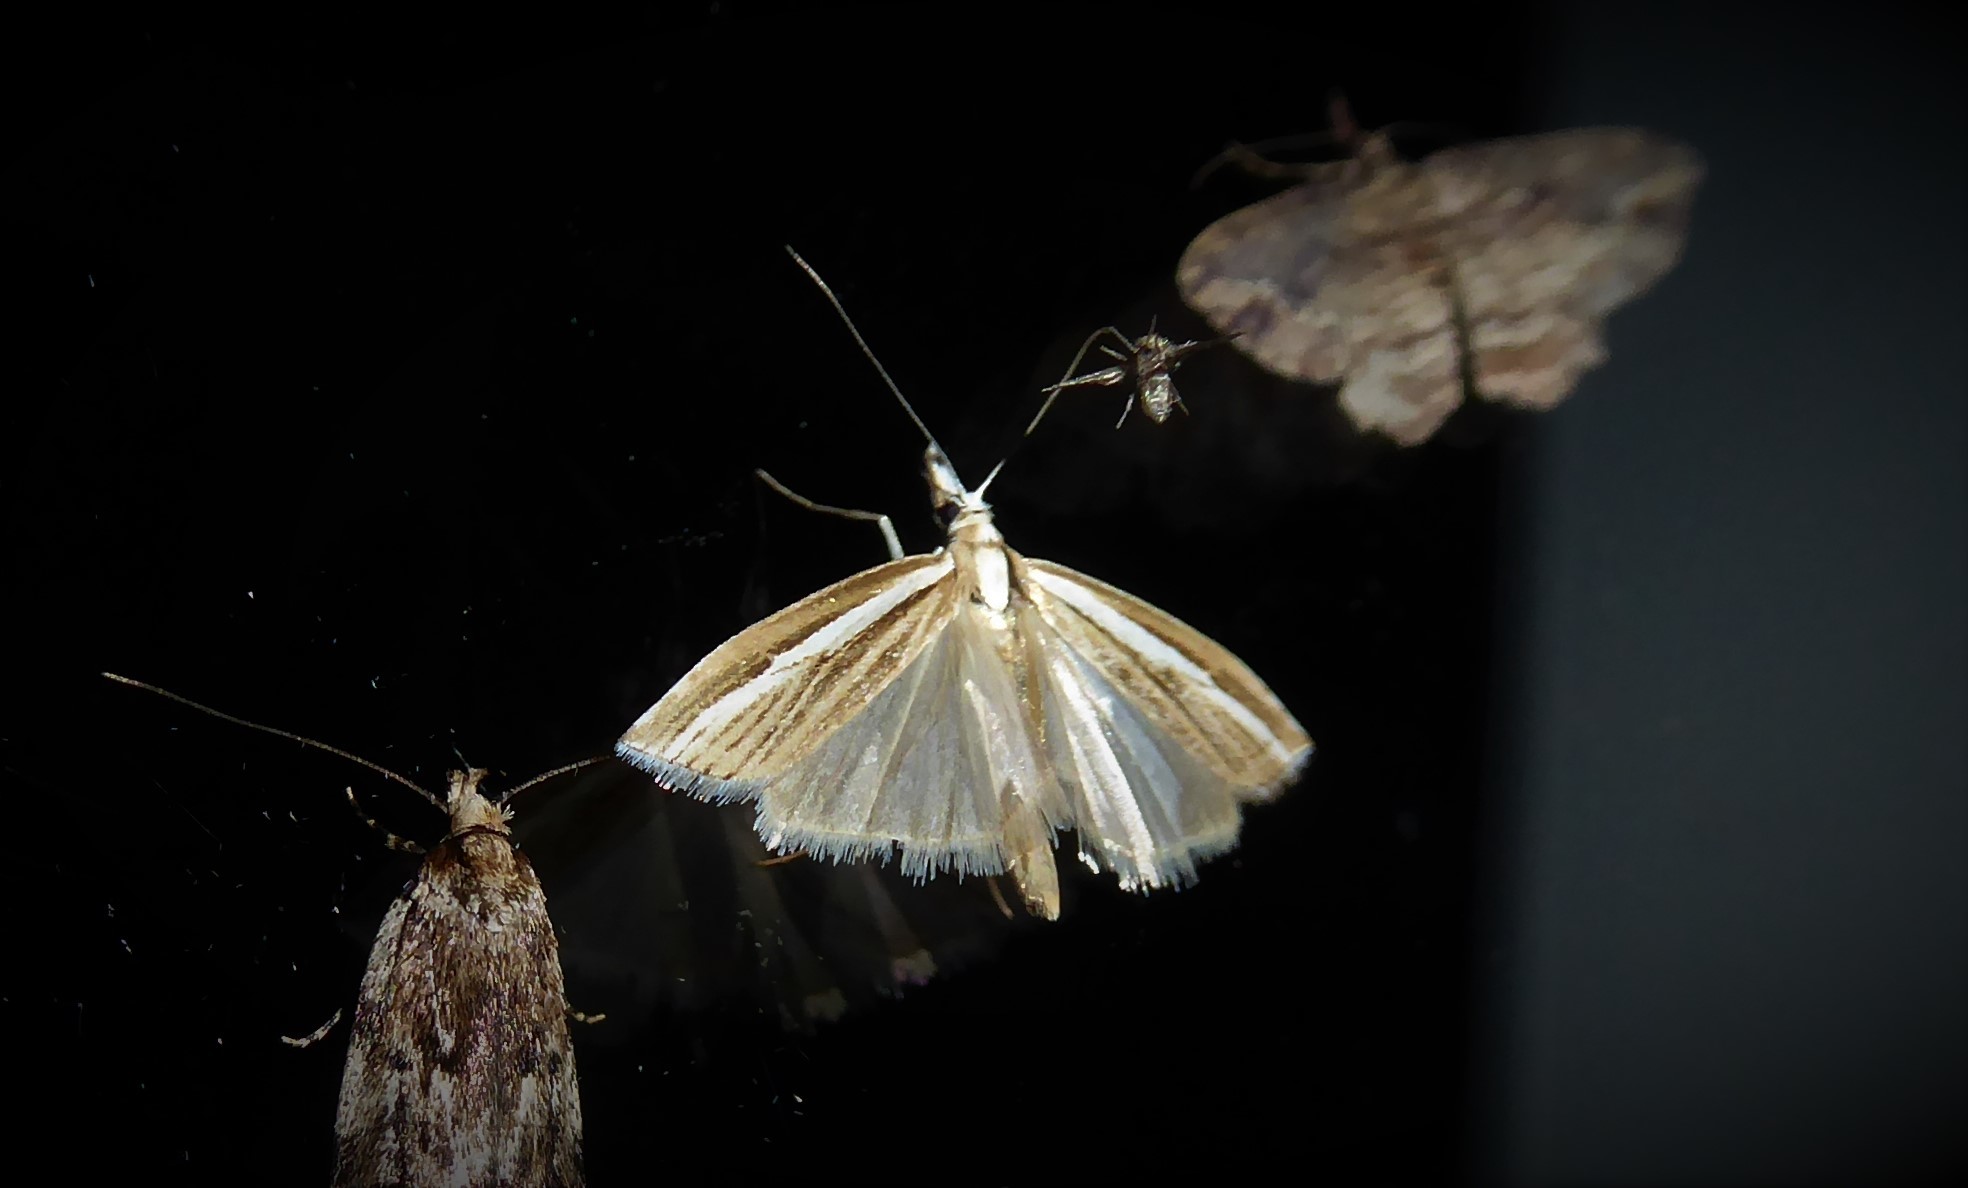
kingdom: Animalia
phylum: Arthropoda
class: Insecta
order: Lepidoptera
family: Crambidae
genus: Orocrambus
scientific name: Orocrambus vittellus
